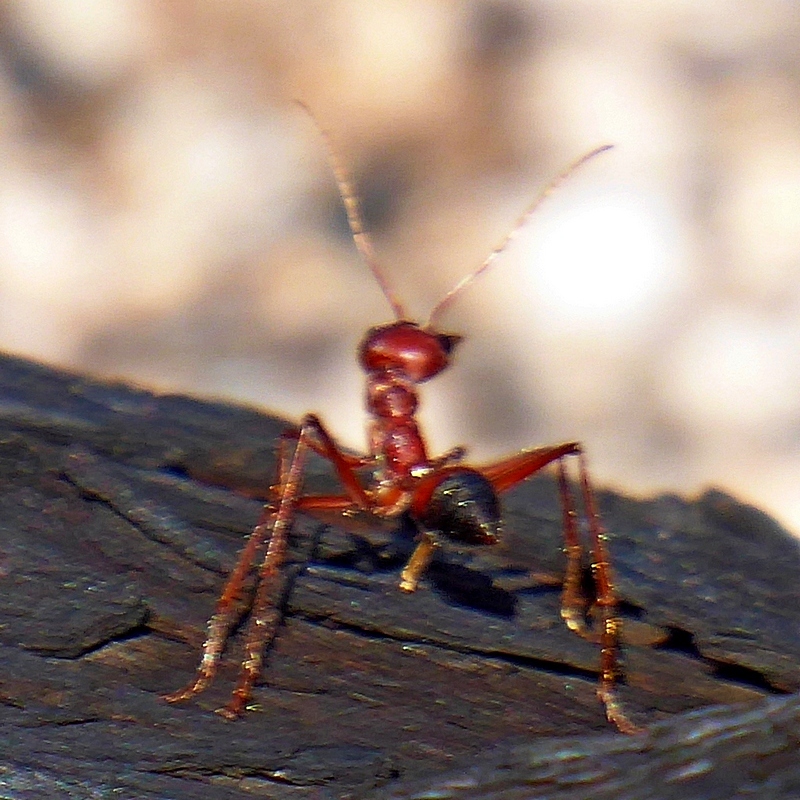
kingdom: Animalia
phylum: Arthropoda
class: Insecta
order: Hymenoptera
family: Formicidae
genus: Myrmecia
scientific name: Myrmecia gulosa
